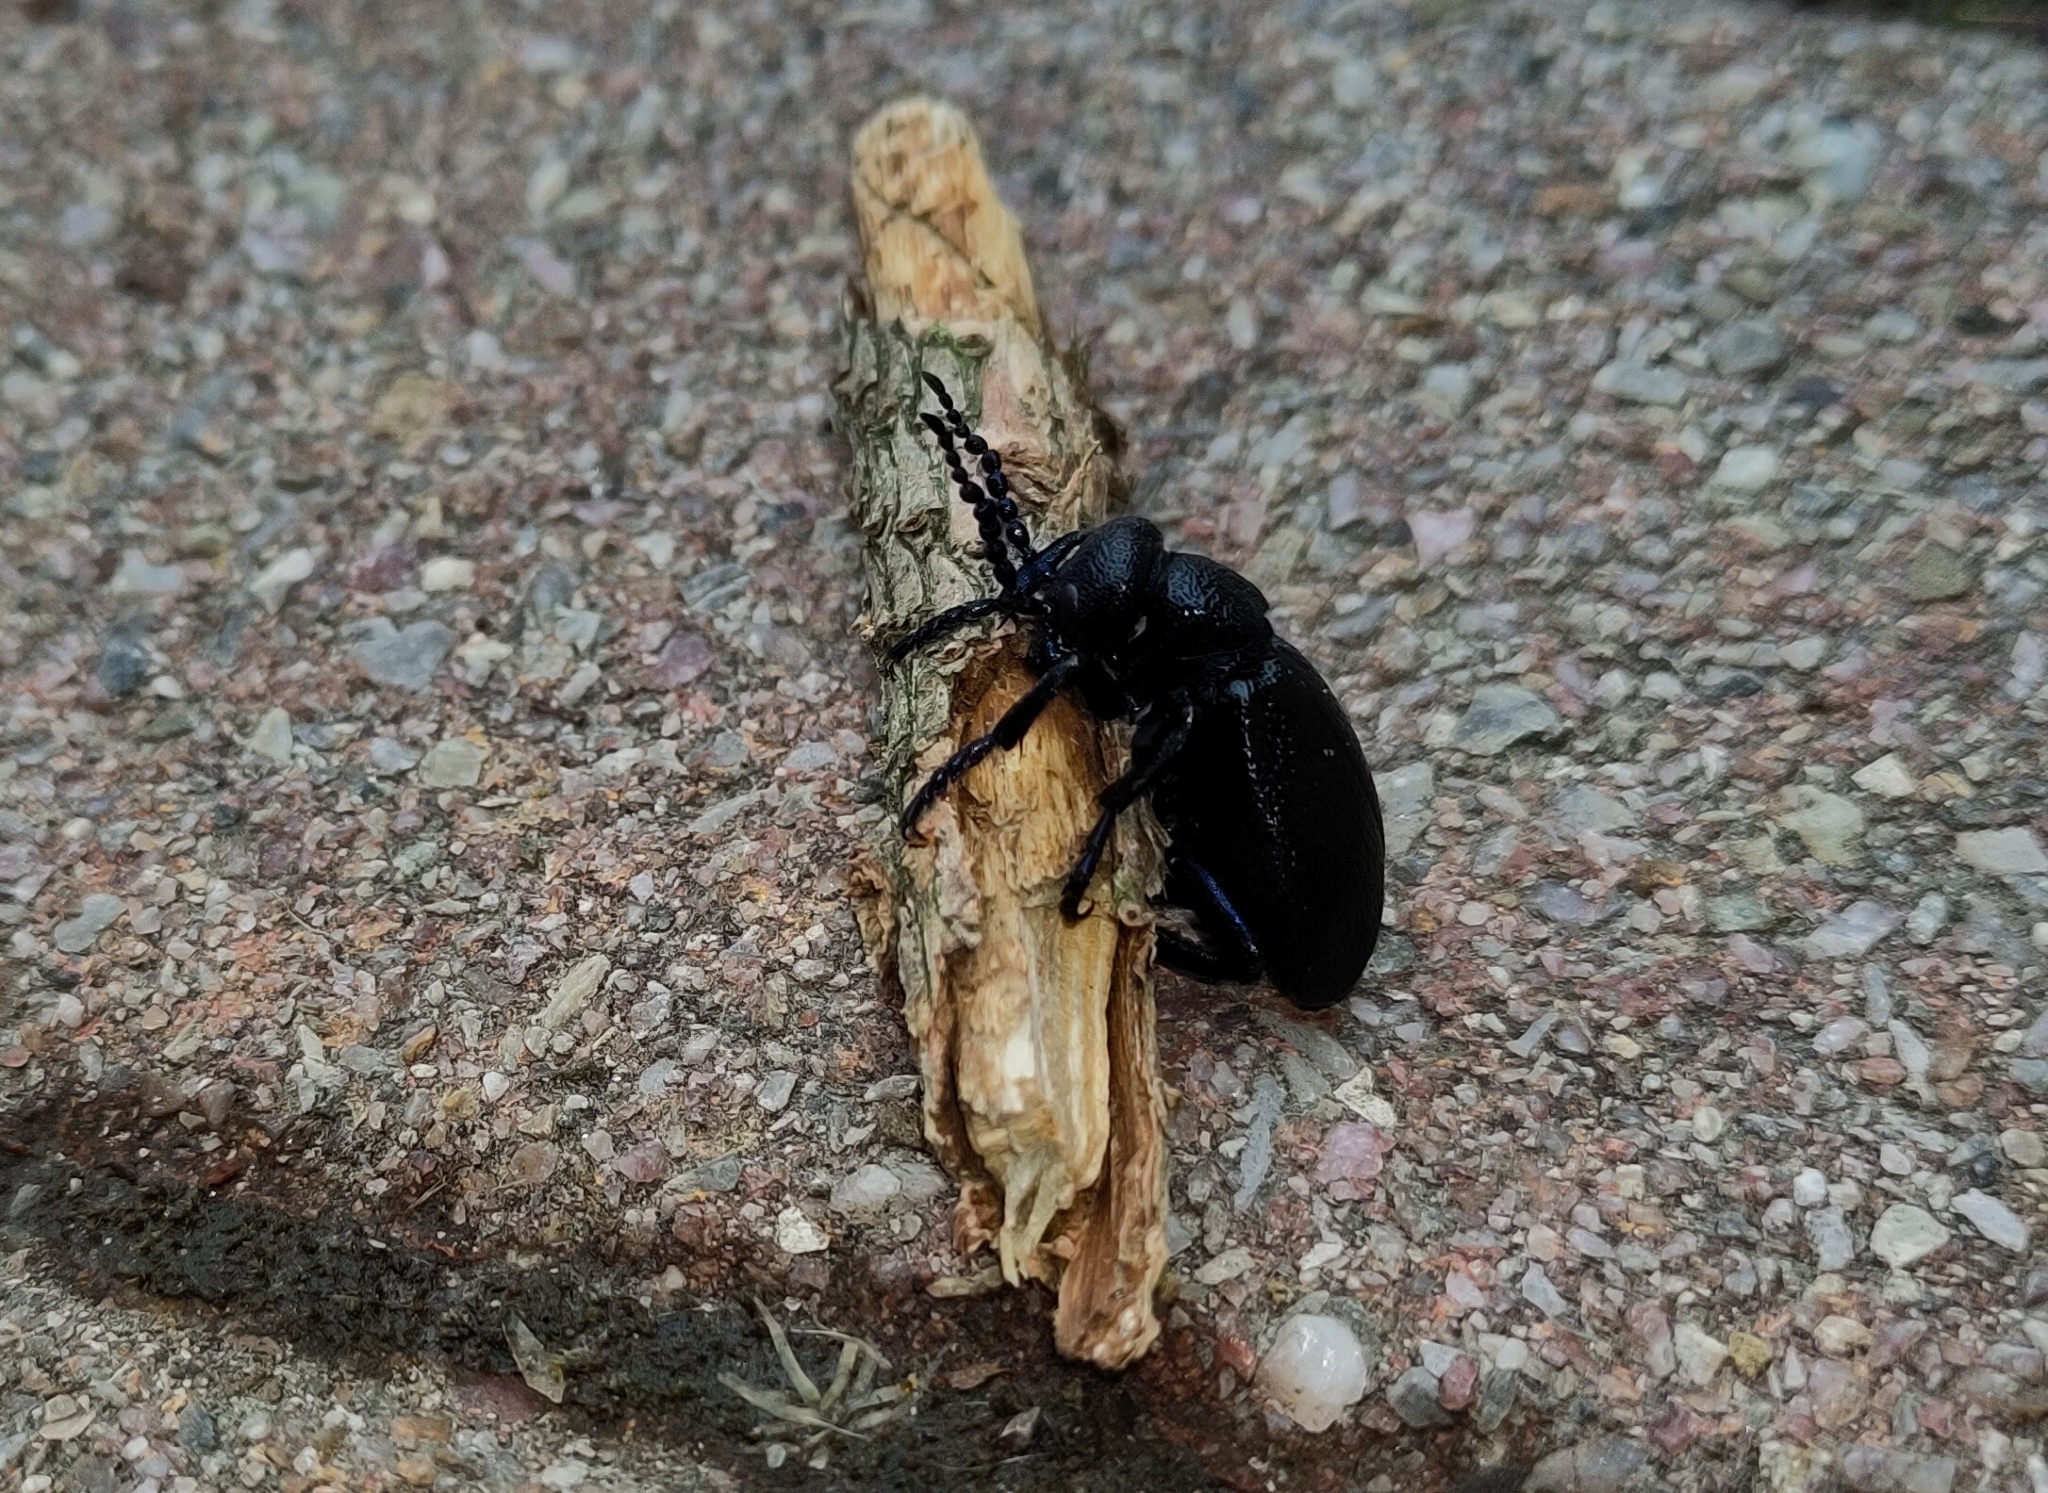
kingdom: Animalia
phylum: Arthropoda
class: Insecta
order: Coleoptera
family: Meloidae
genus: Meloe
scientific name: Meloe proscarabaeus
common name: Black oil-beetle
